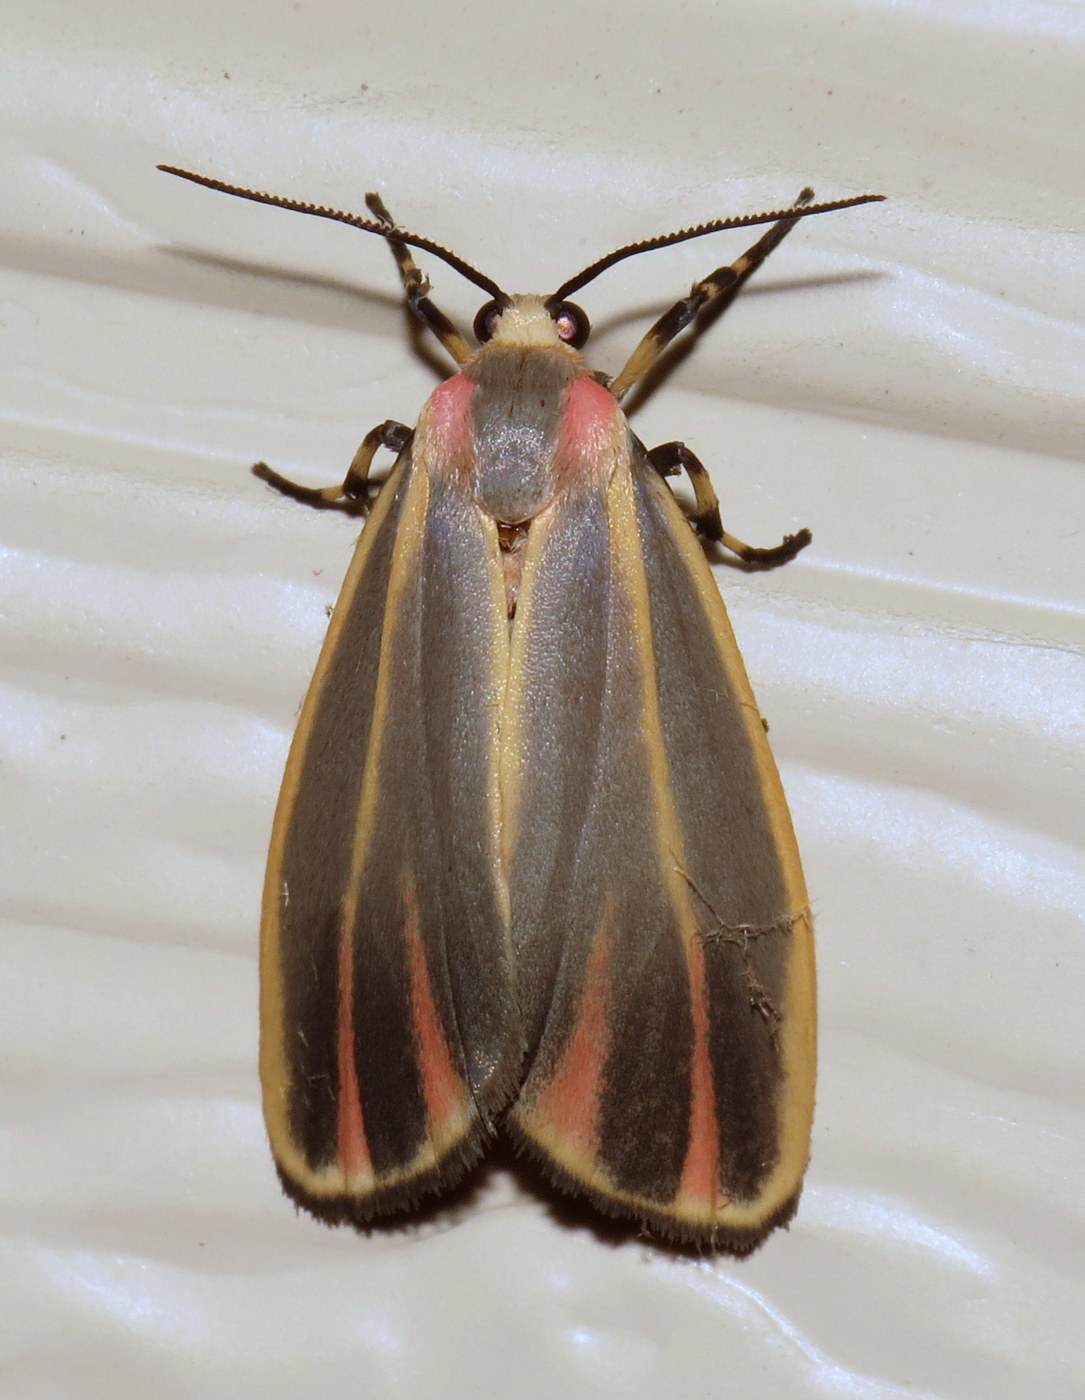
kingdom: Animalia
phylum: Arthropoda
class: Insecta
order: Lepidoptera
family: Erebidae
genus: Hypoprepia
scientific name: Hypoprepia fucosa
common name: Painted lichen moth
